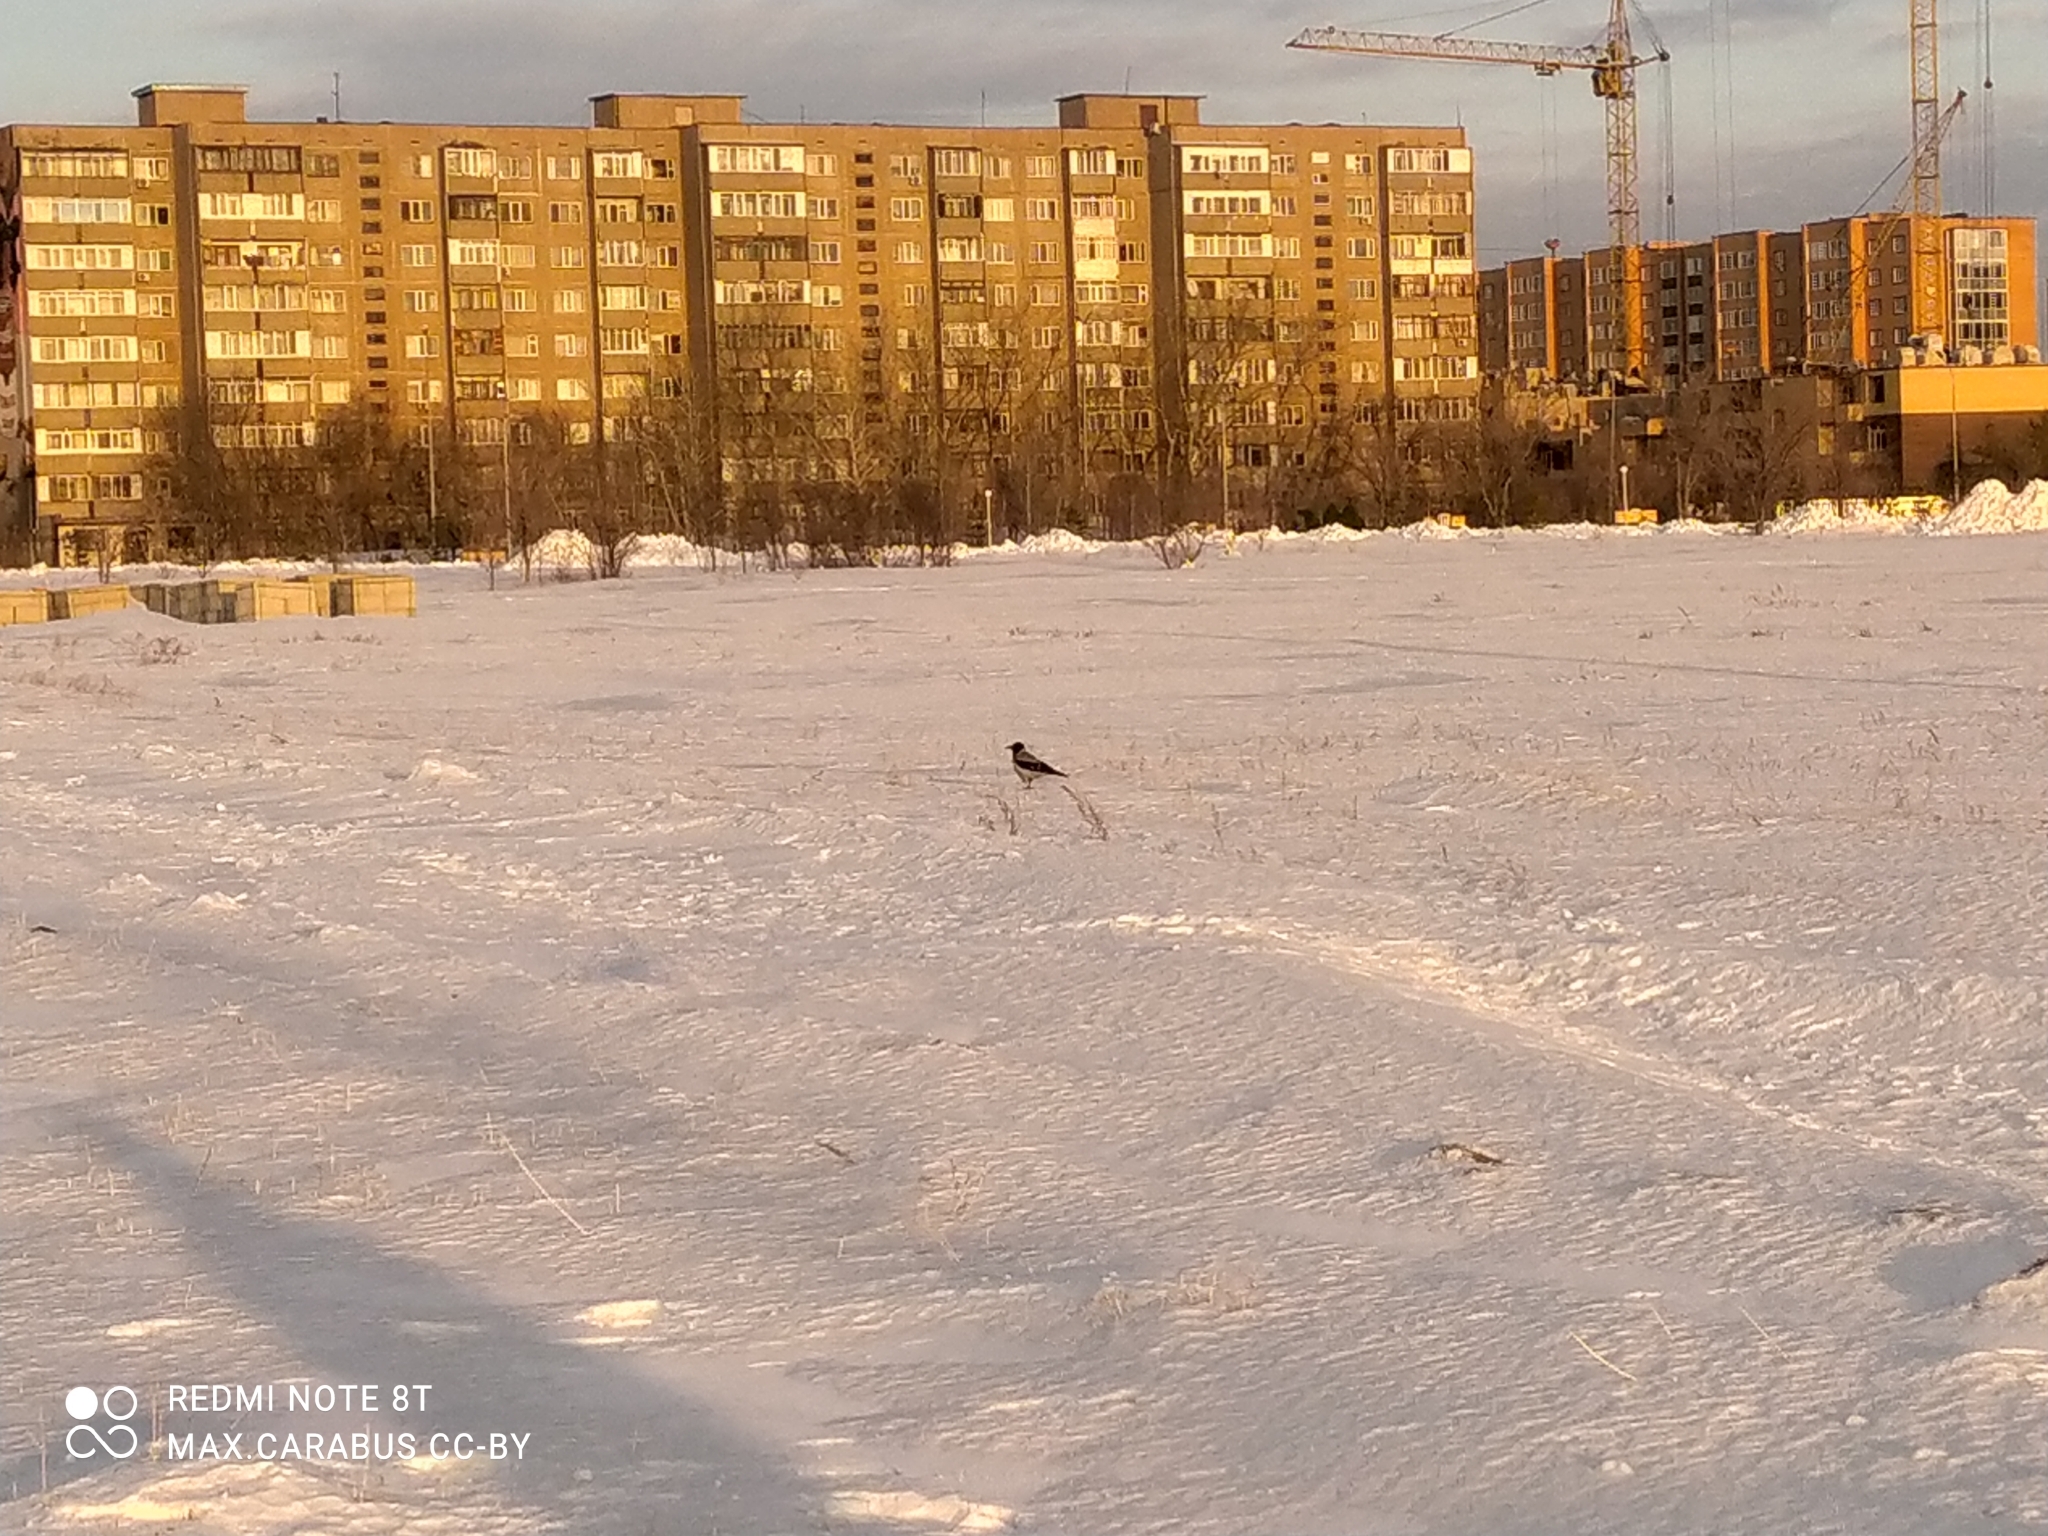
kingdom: Animalia
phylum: Chordata
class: Aves
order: Passeriformes
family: Corvidae
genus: Corvus
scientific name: Corvus cornix
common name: Hooded crow
